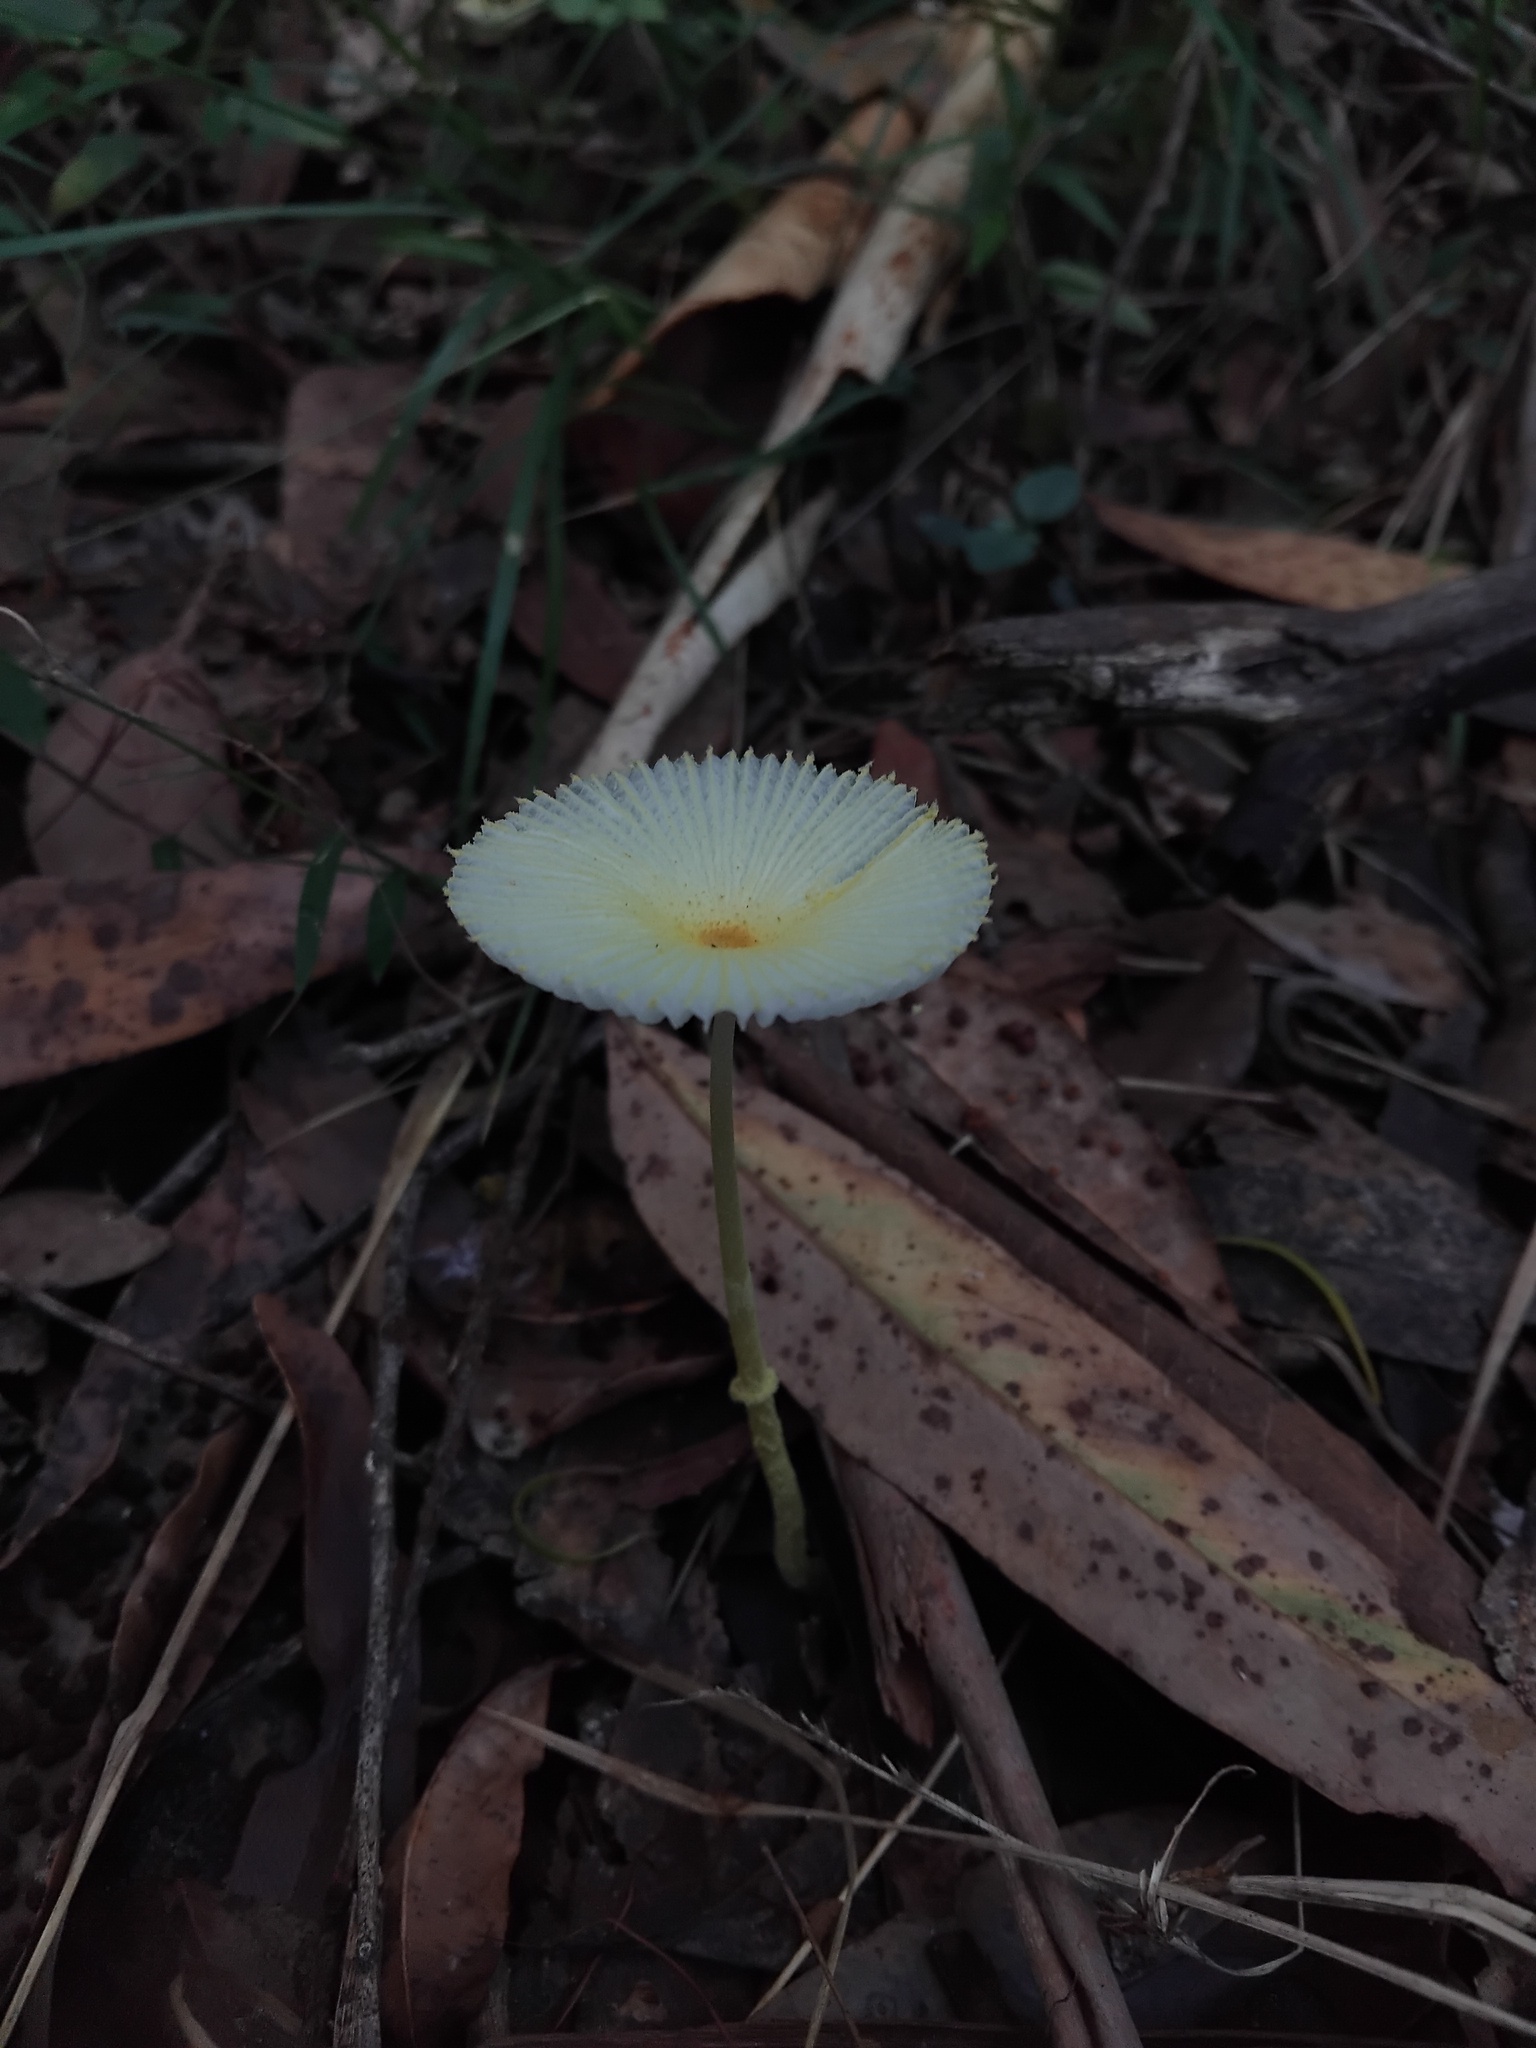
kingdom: Fungi
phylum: Basidiomycota
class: Agaricomycetes
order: Agaricales
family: Agaricaceae
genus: Leucocoprinus
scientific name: Leucocoprinus fragilissimus
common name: Fragile dapperling
